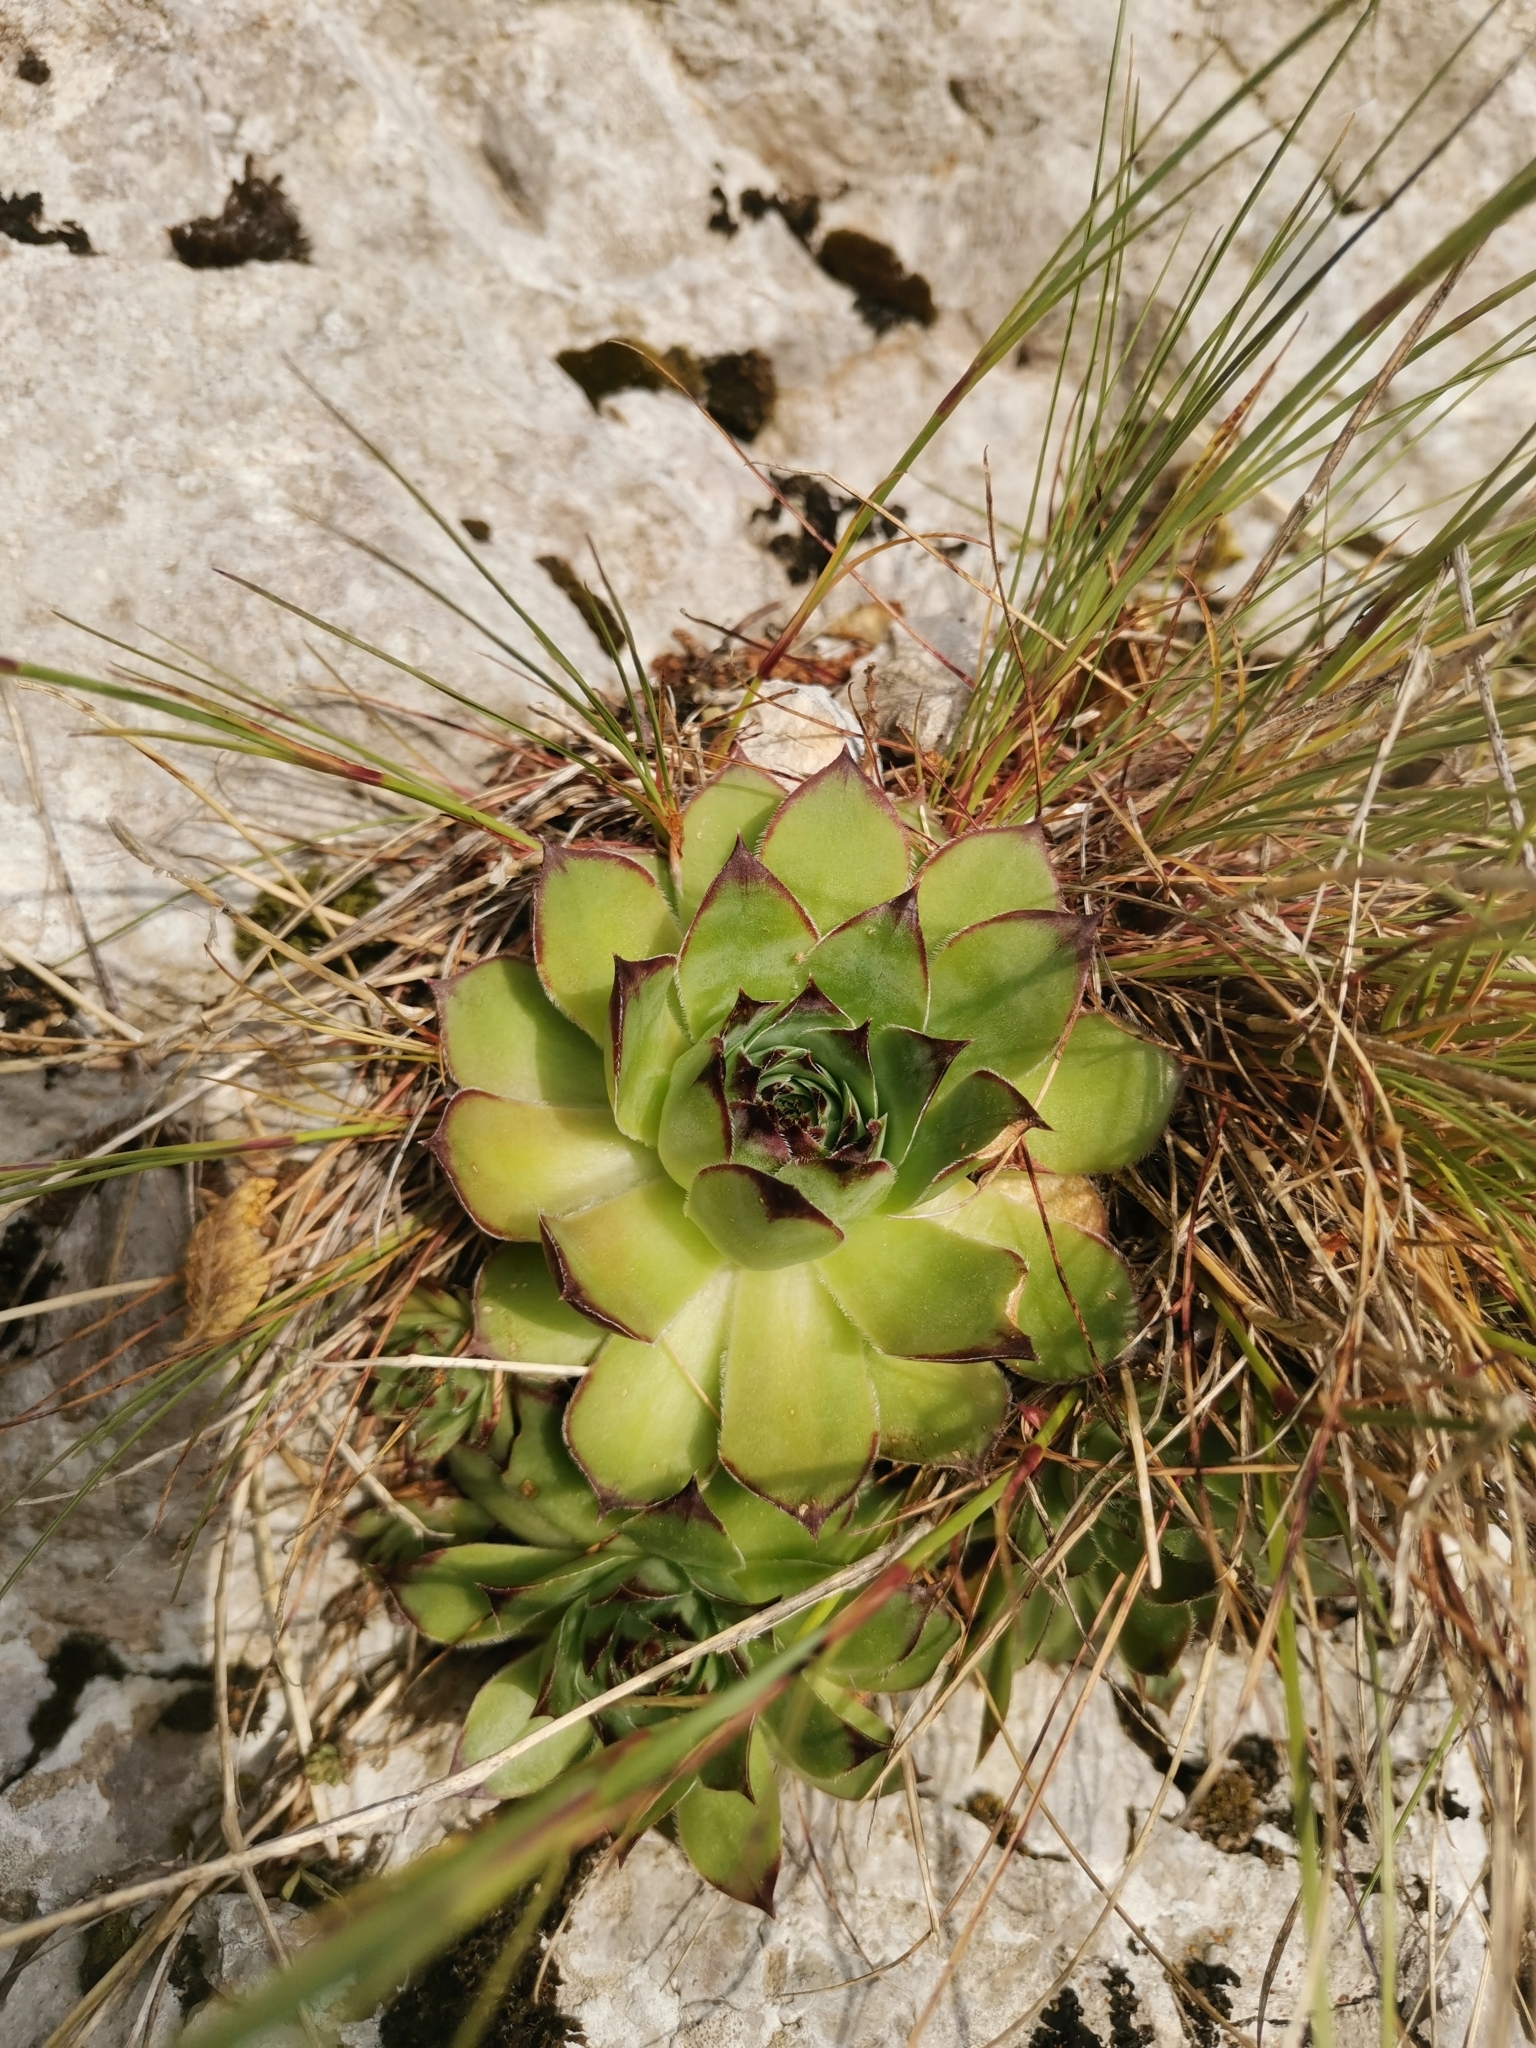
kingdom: Plantae
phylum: Tracheophyta
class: Magnoliopsida
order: Saxifragales
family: Crassulaceae
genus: Sempervivum
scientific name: Sempervivum tectorum
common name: House-leek
